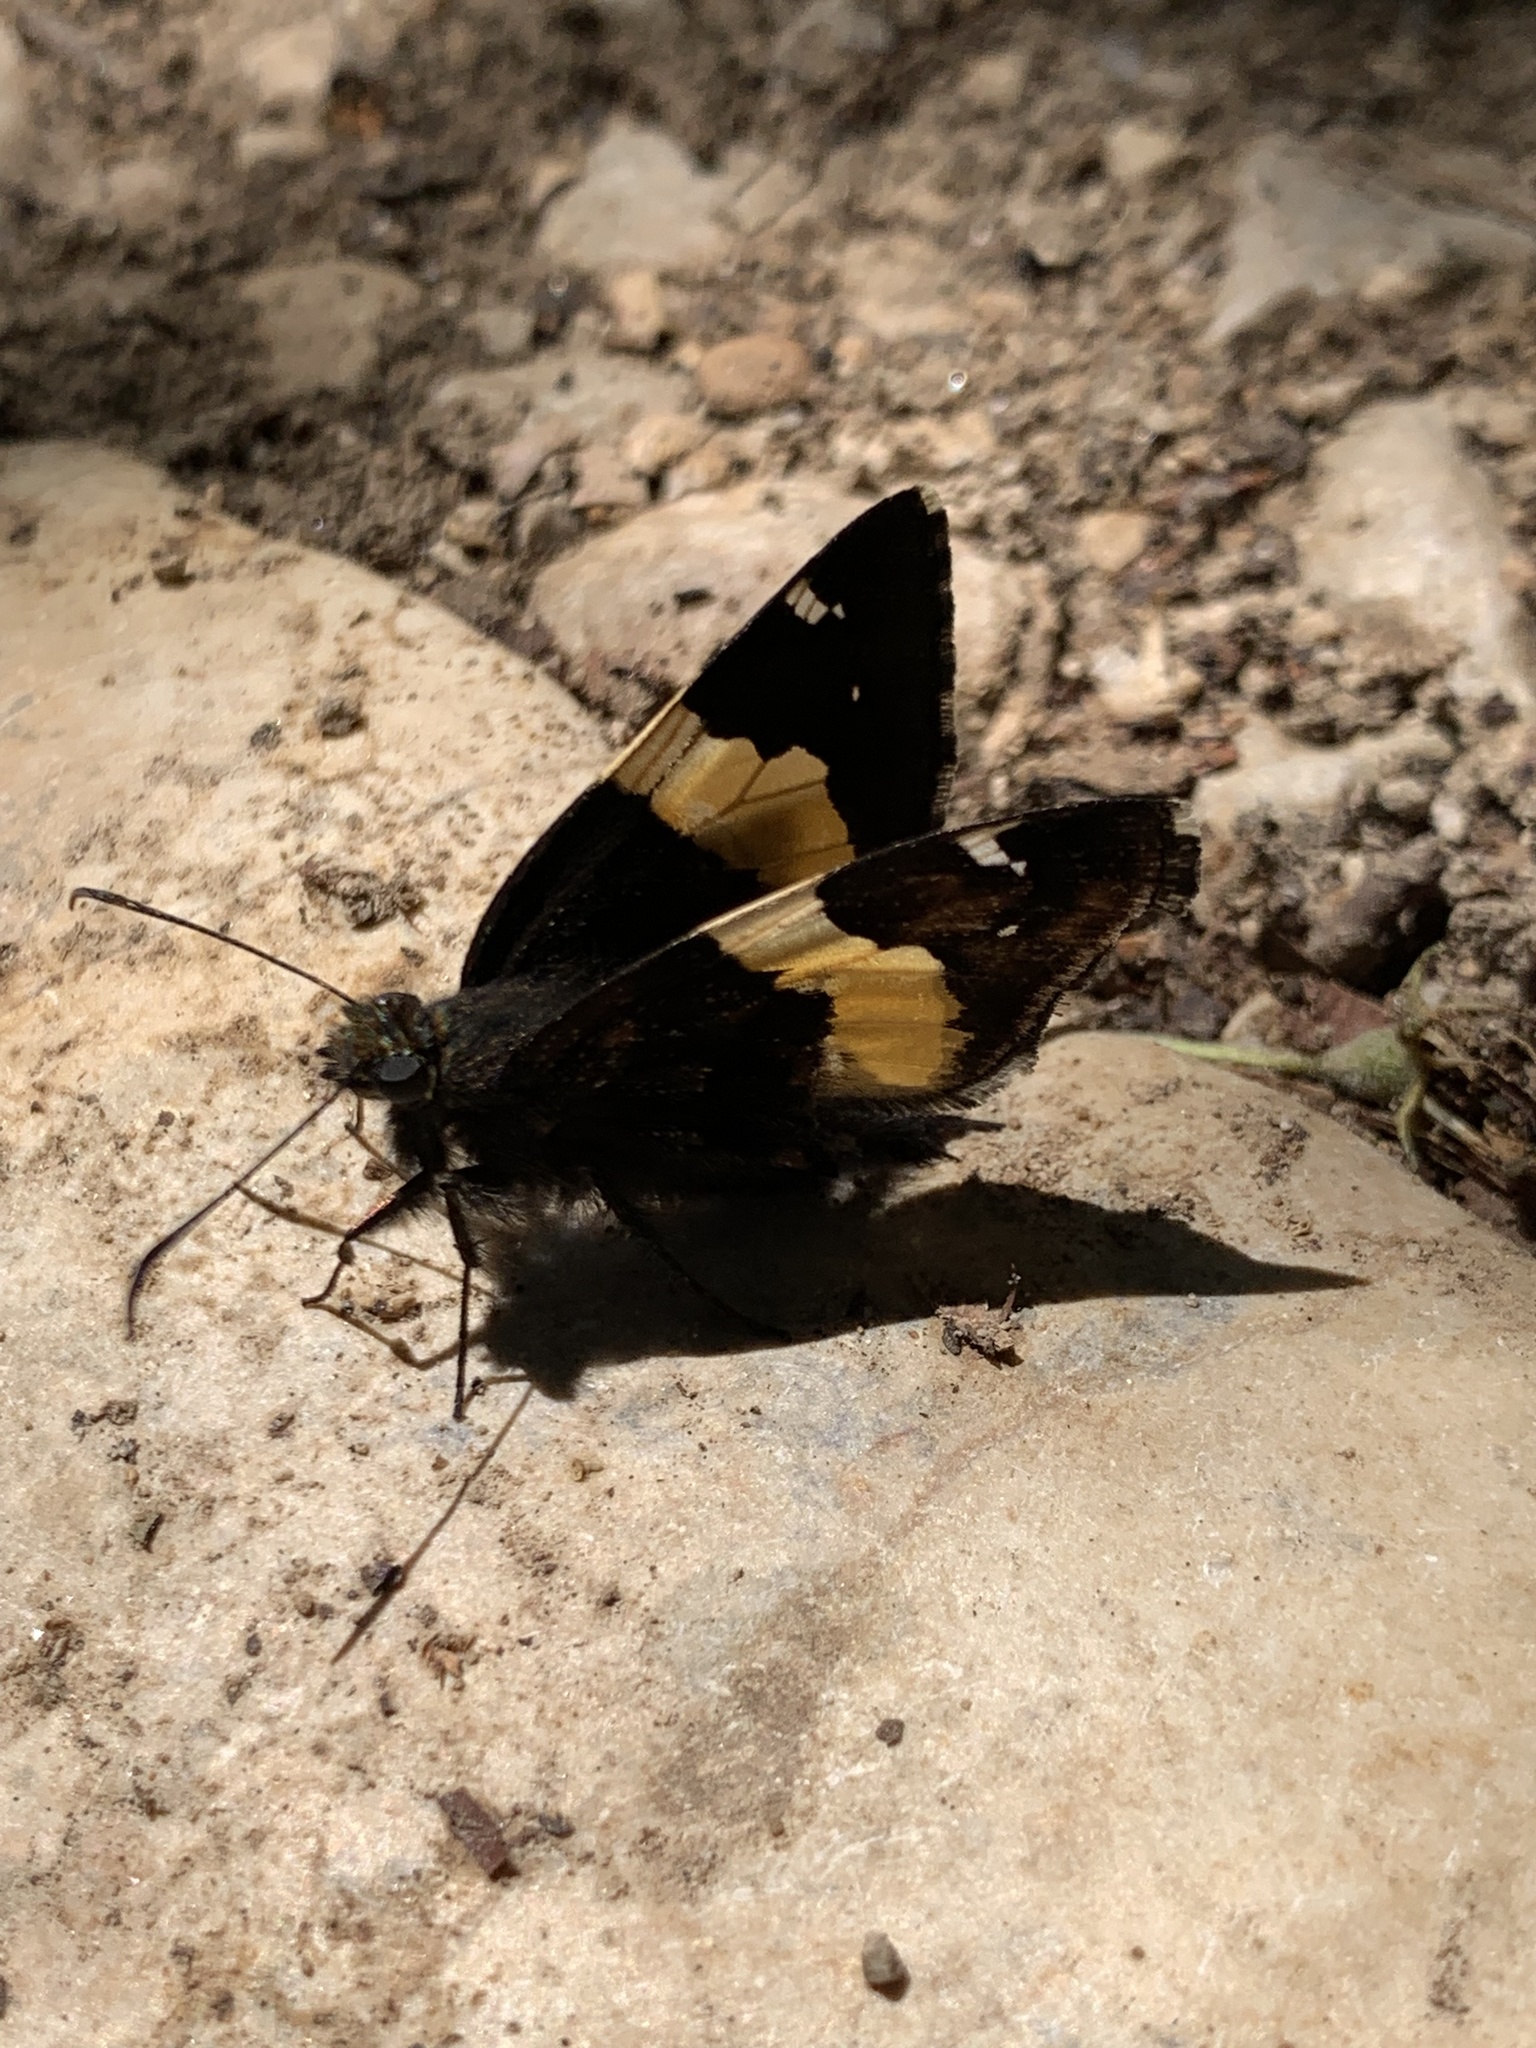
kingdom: Animalia
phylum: Arthropoda
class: Arachnida
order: Scorpiones
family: Bothriuridae
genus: Telegonus
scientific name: Telegonus cellus
